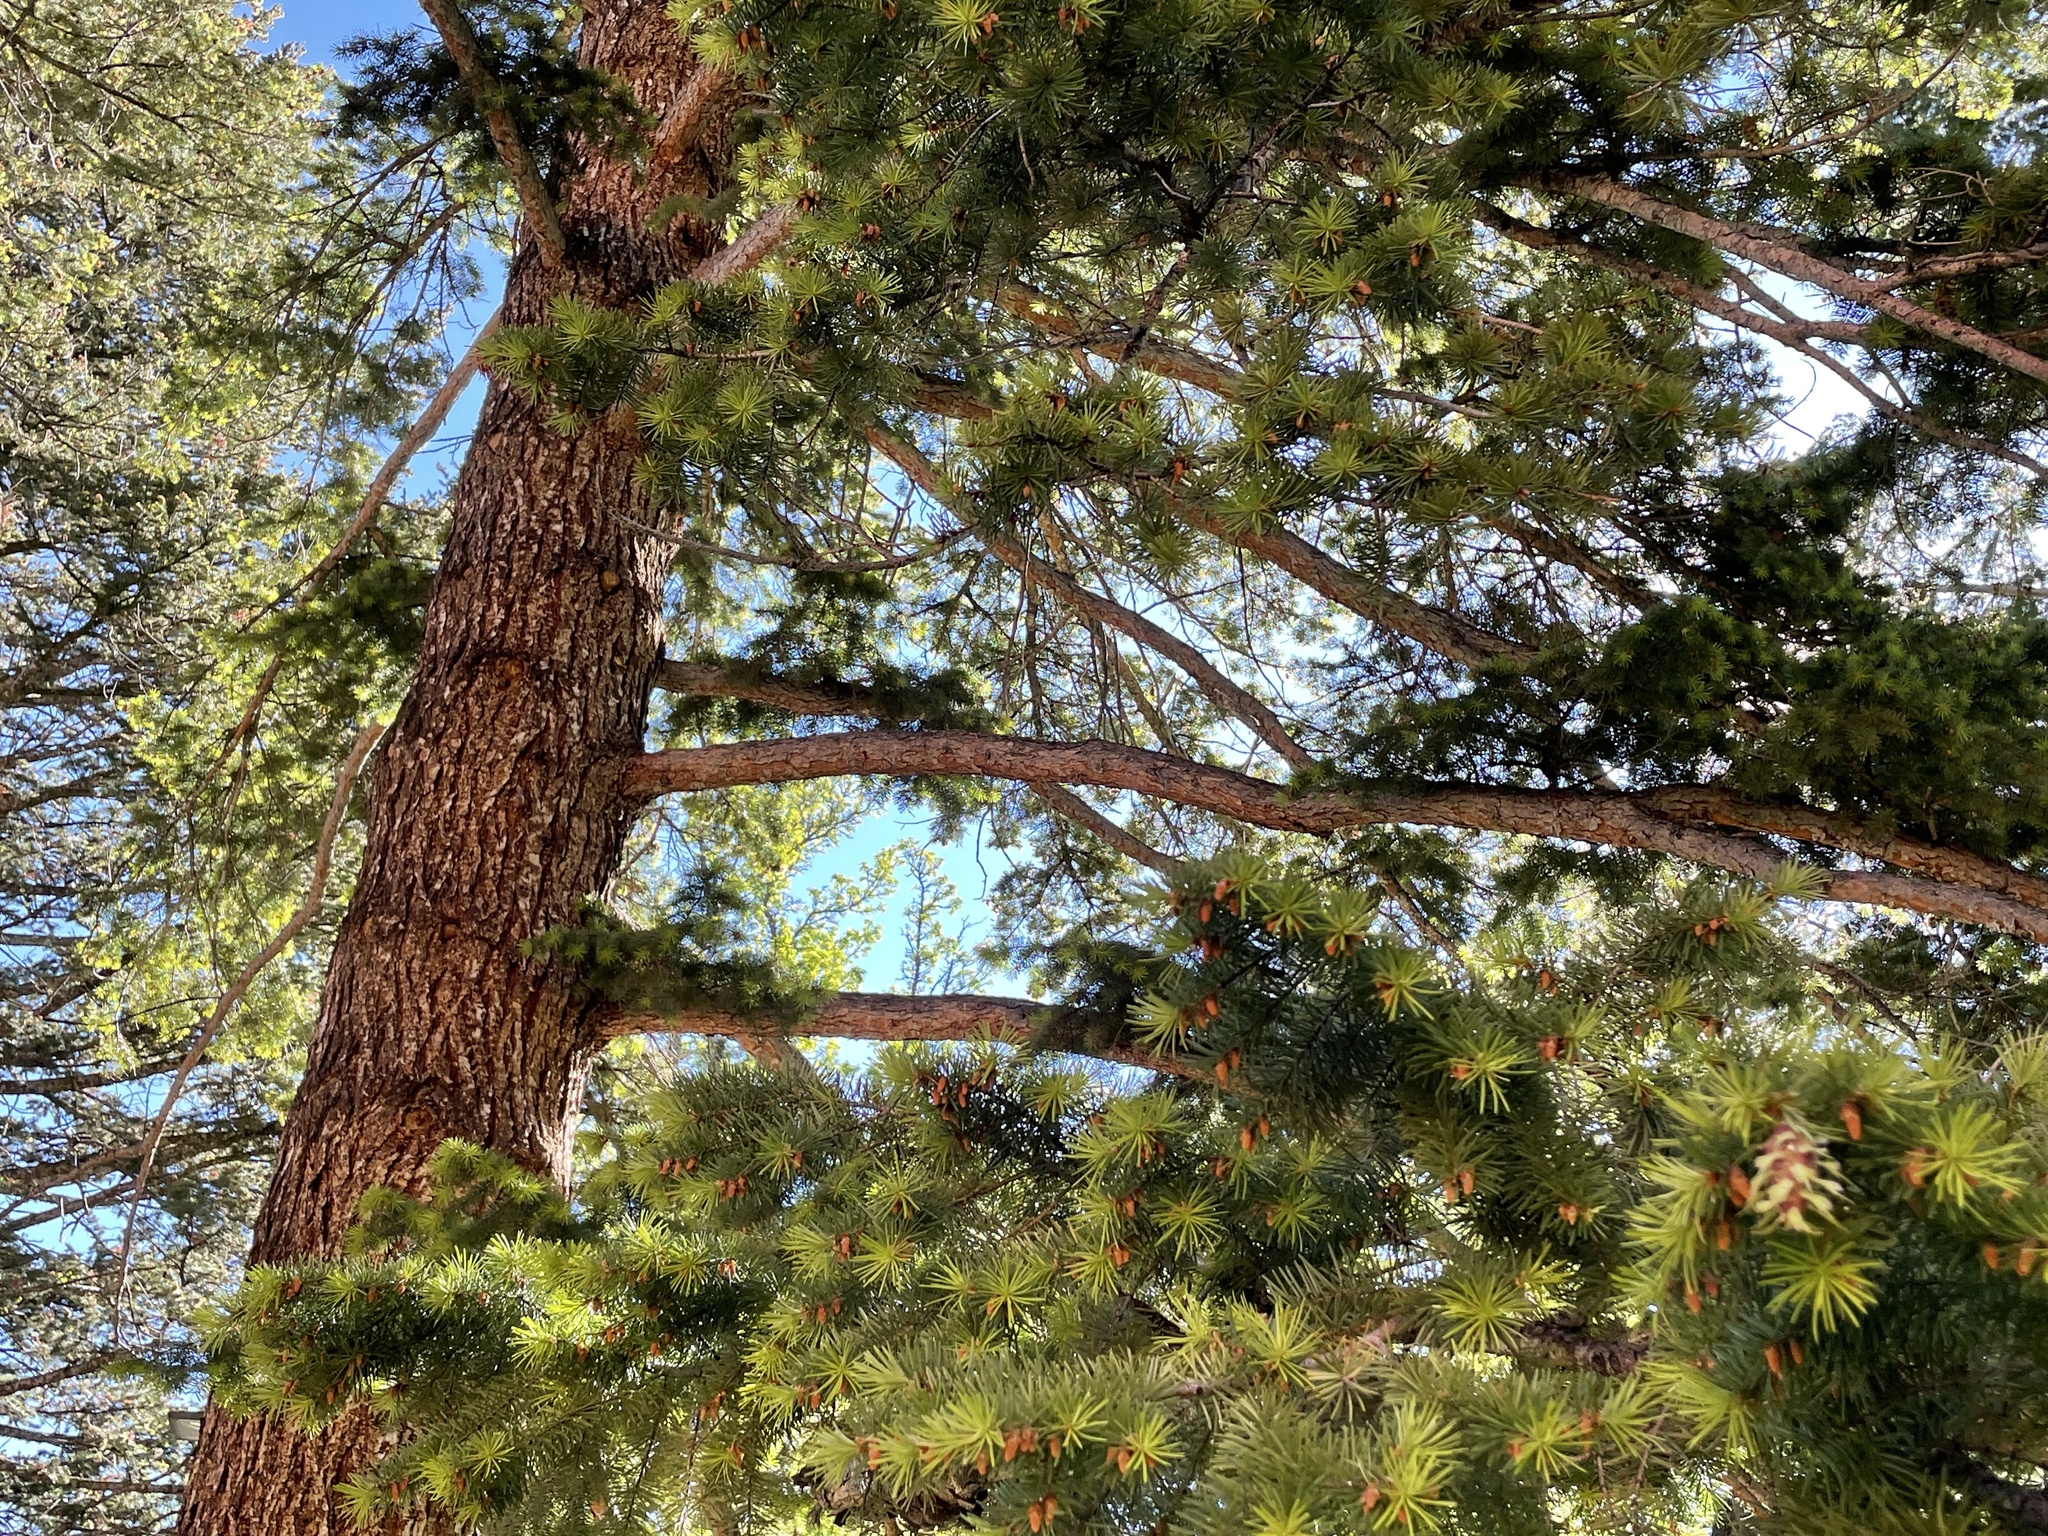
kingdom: Plantae
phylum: Tracheophyta
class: Pinopsida
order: Pinales
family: Pinaceae
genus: Pseudotsuga
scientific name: Pseudotsuga menziesii
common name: Douglas fir
